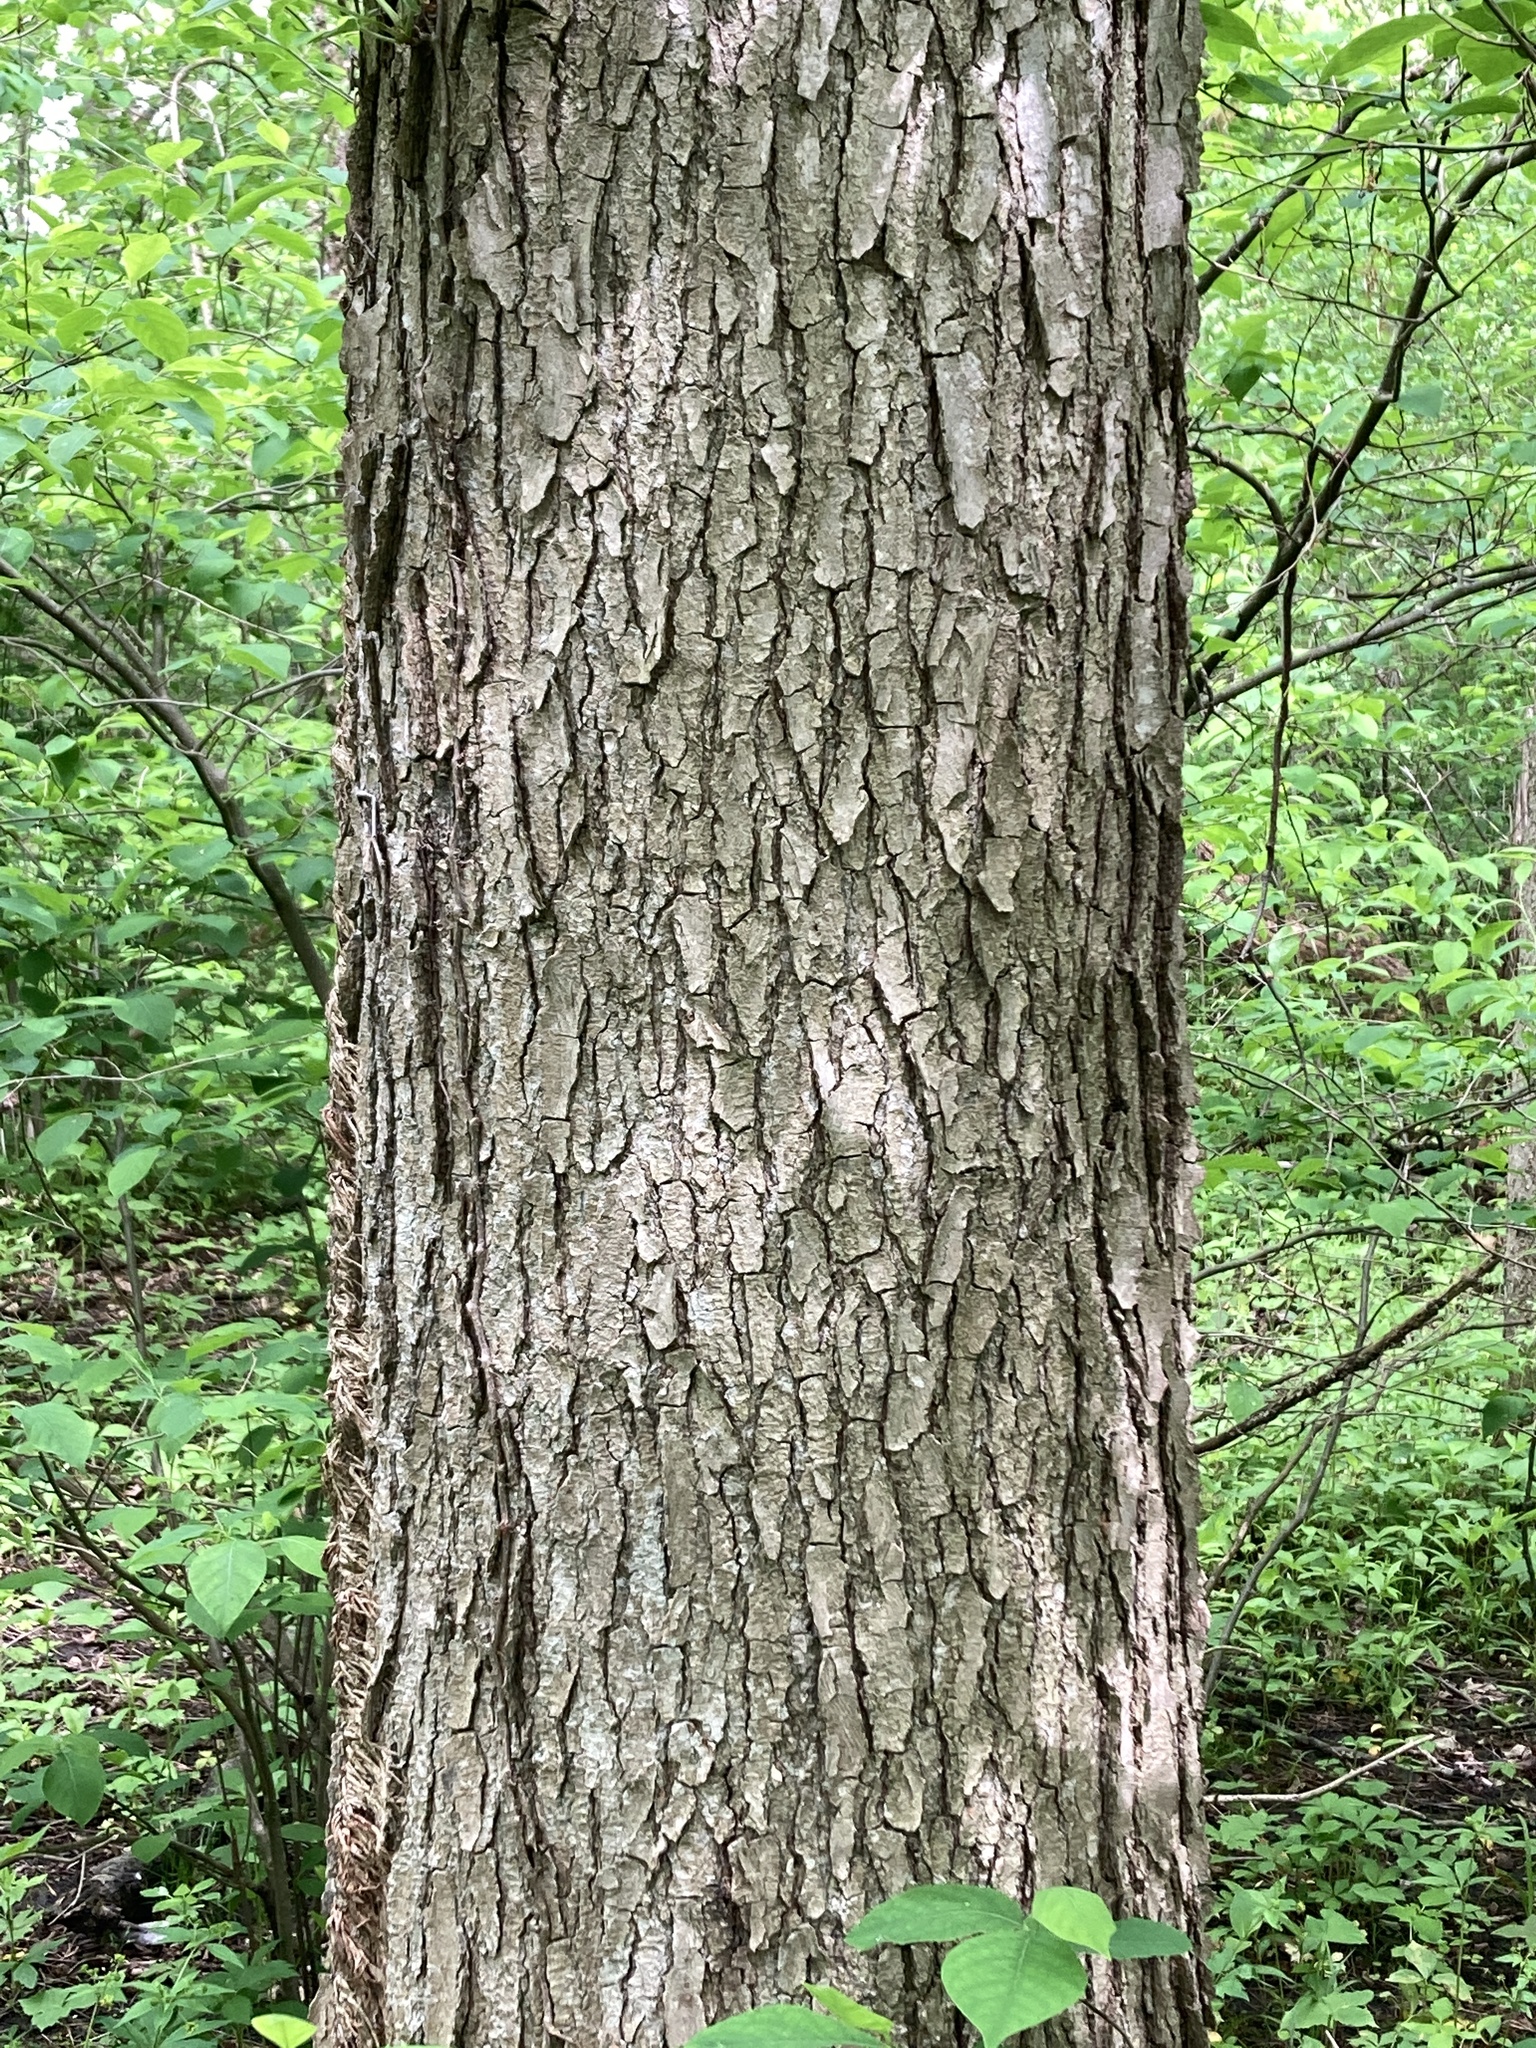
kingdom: Plantae
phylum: Tracheophyta
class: Magnoliopsida
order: Fabales
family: Fabaceae
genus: Gymnocladus
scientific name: Gymnocladus dioicus
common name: Kentucky coffee-tree
